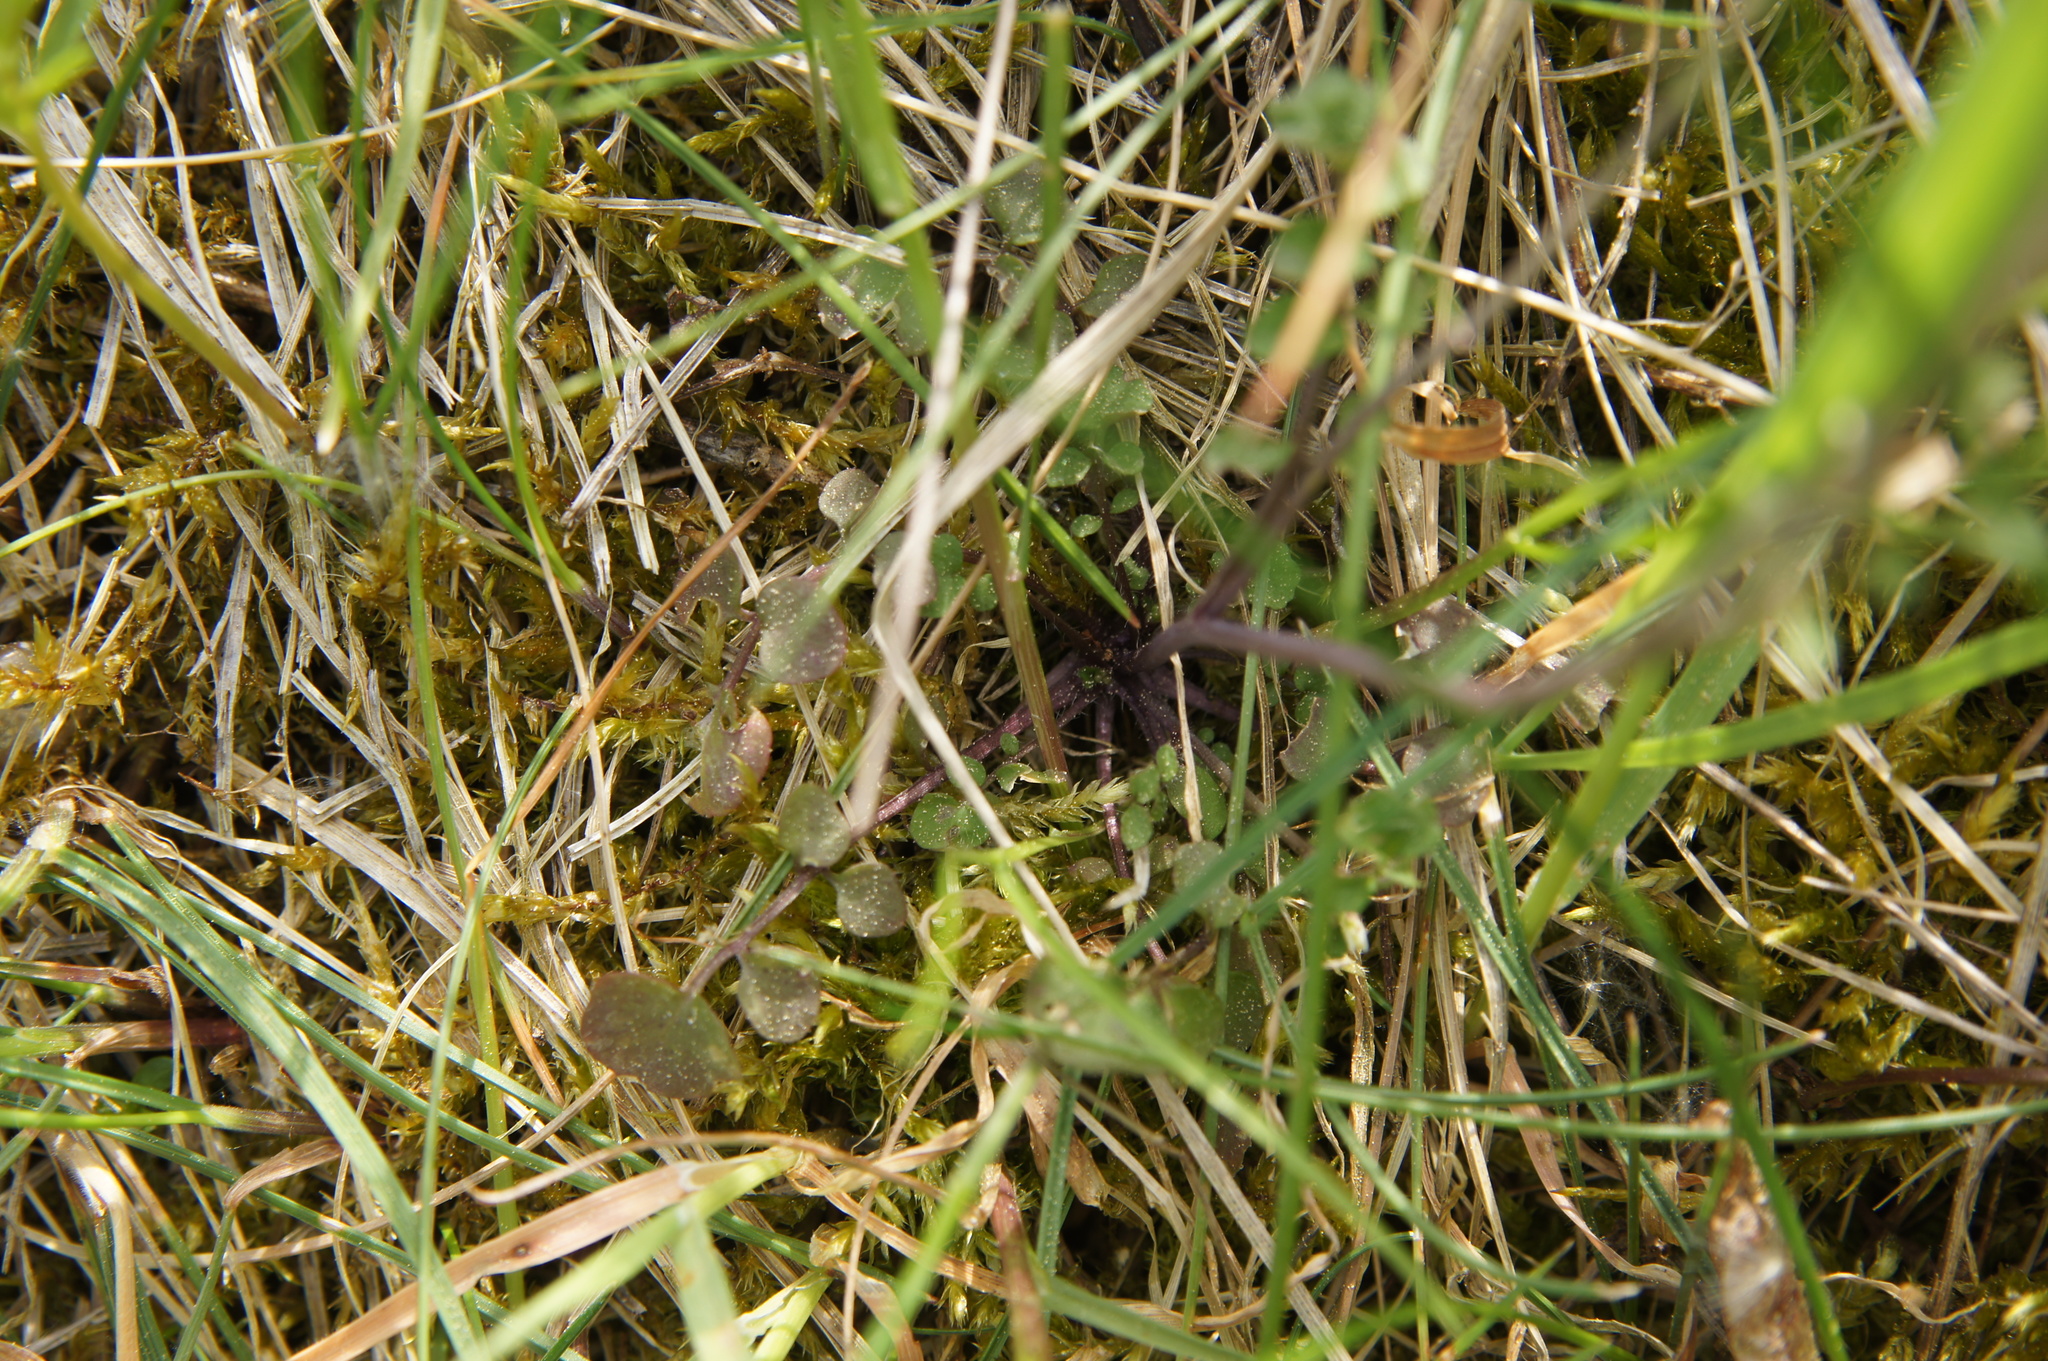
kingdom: Plantae
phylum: Tracheophyta
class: Magnoliopsida
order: Brassicales
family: Brassicaceae
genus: Cardamine
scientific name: Cardamine hirsuta
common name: Hairy bittercress
